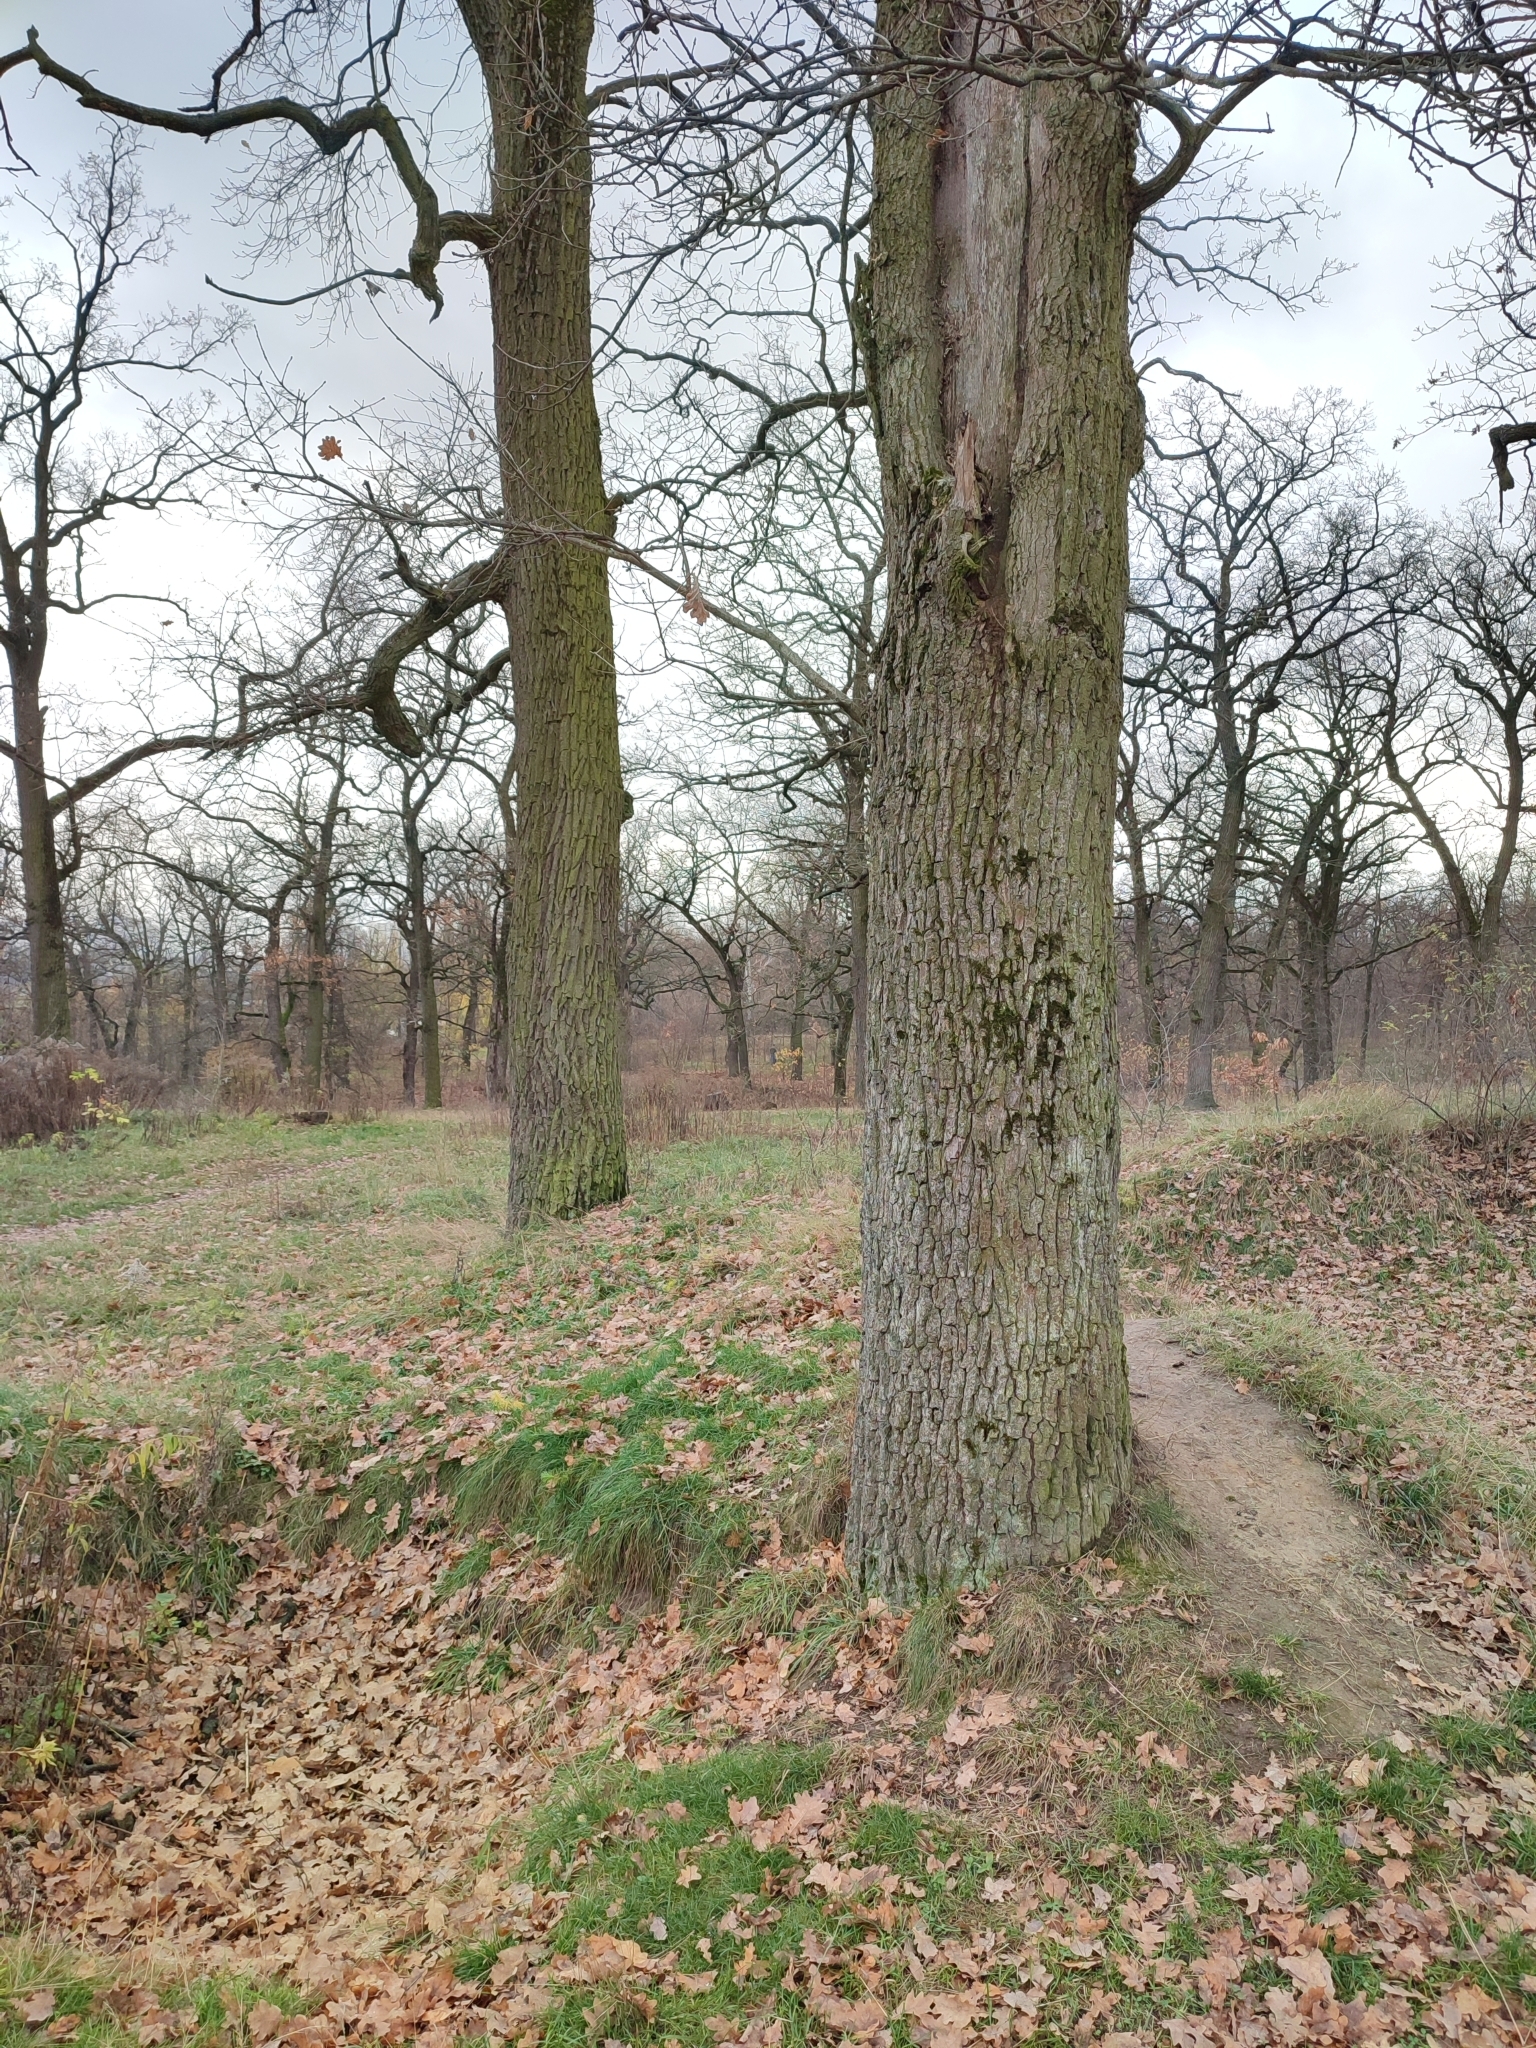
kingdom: Plantae
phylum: Tracheophyta
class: Magnoliopsida
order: Fagales
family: Fagaceae
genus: Quercus
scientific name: Quercus robur
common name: Pedunculate oak
